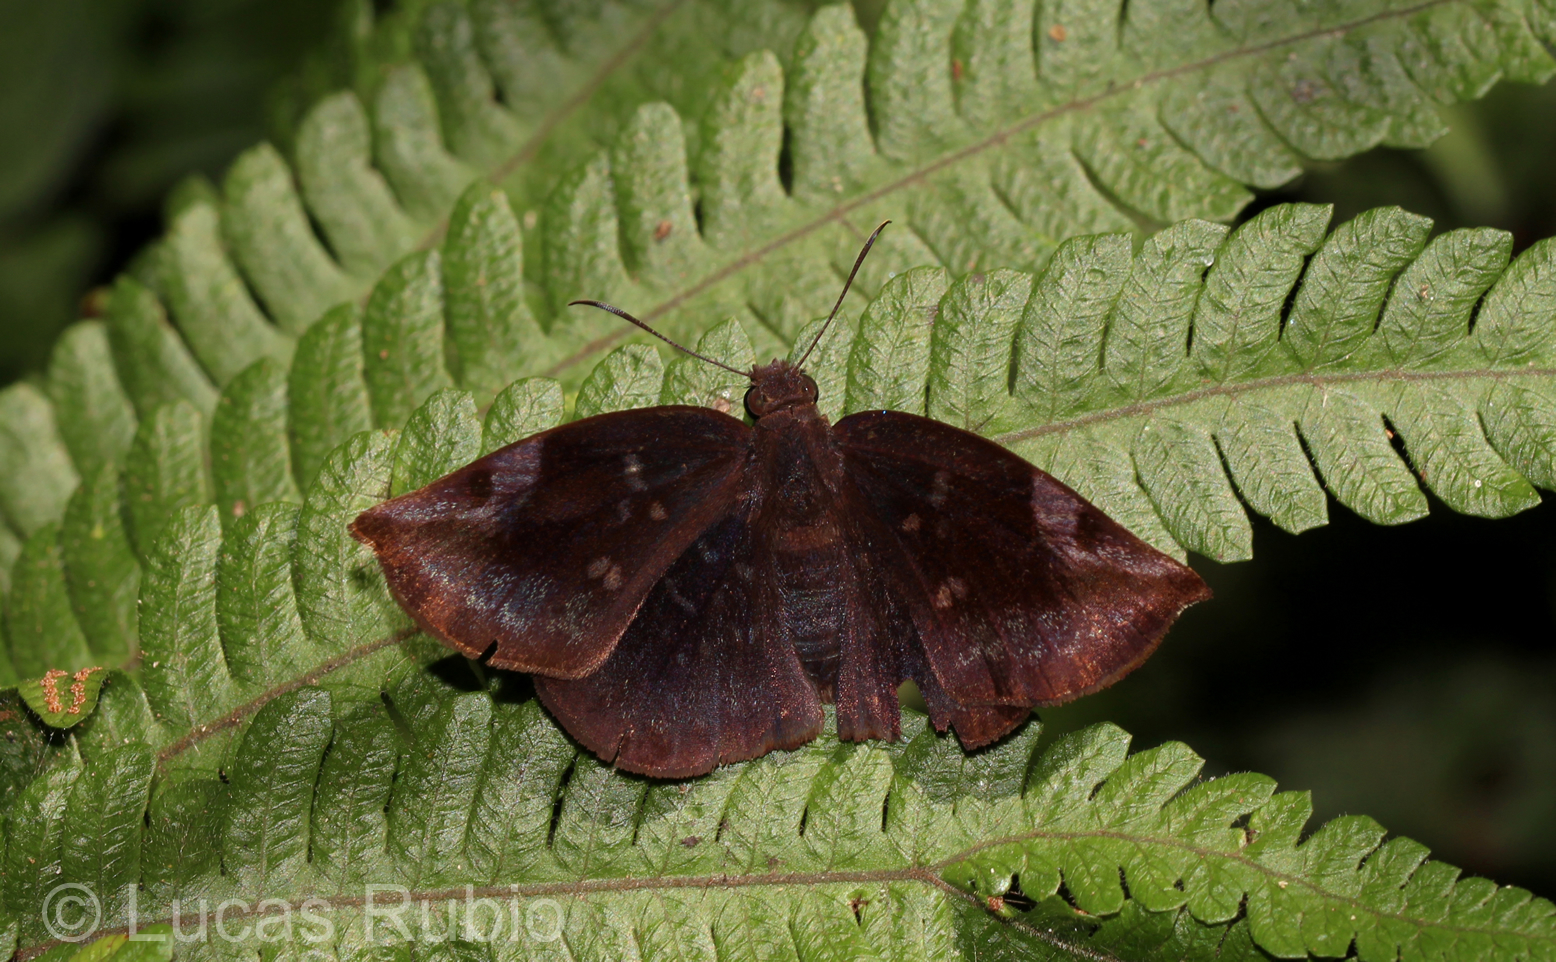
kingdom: Animalia
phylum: Arthropoda
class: Insecta
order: Lepidoptera
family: Hesperiidae
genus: Achlyodes
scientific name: Achlyodes thraso
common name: Sickle-winged skipper
